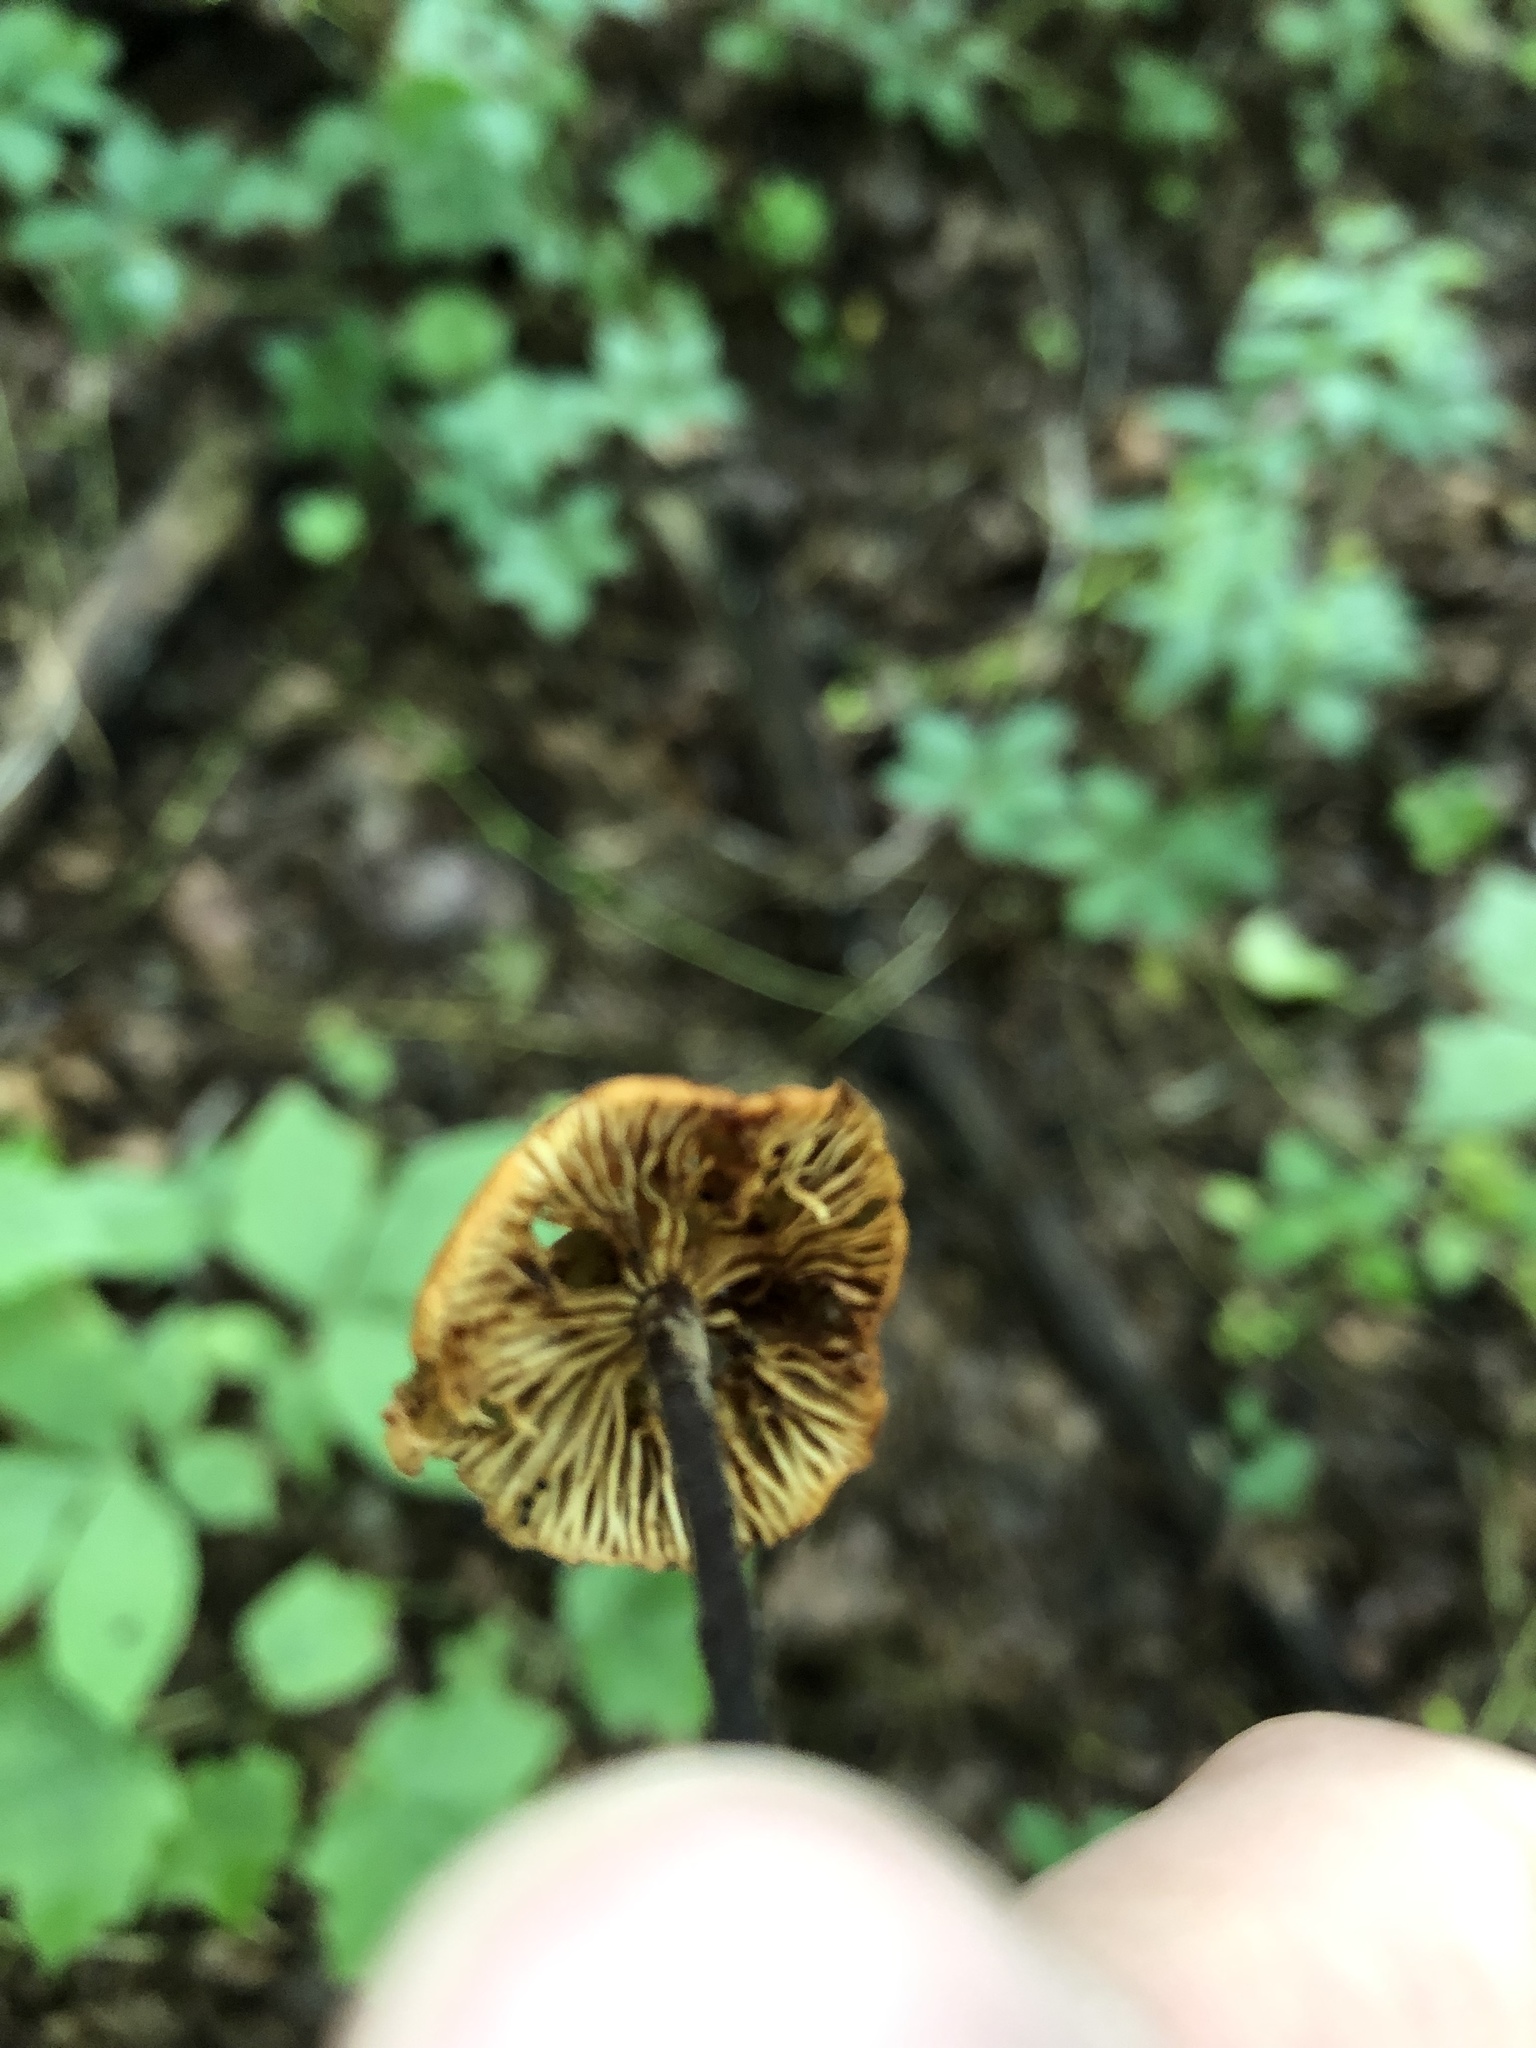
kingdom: Fungi
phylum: Basidiomycota
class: Agaricomycetes
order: Agaricales
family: Physalacriaceae
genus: Rhizomarasmius
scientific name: Rhizomarasmius pyrrhocephalus
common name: Hairy long stem marasmius
